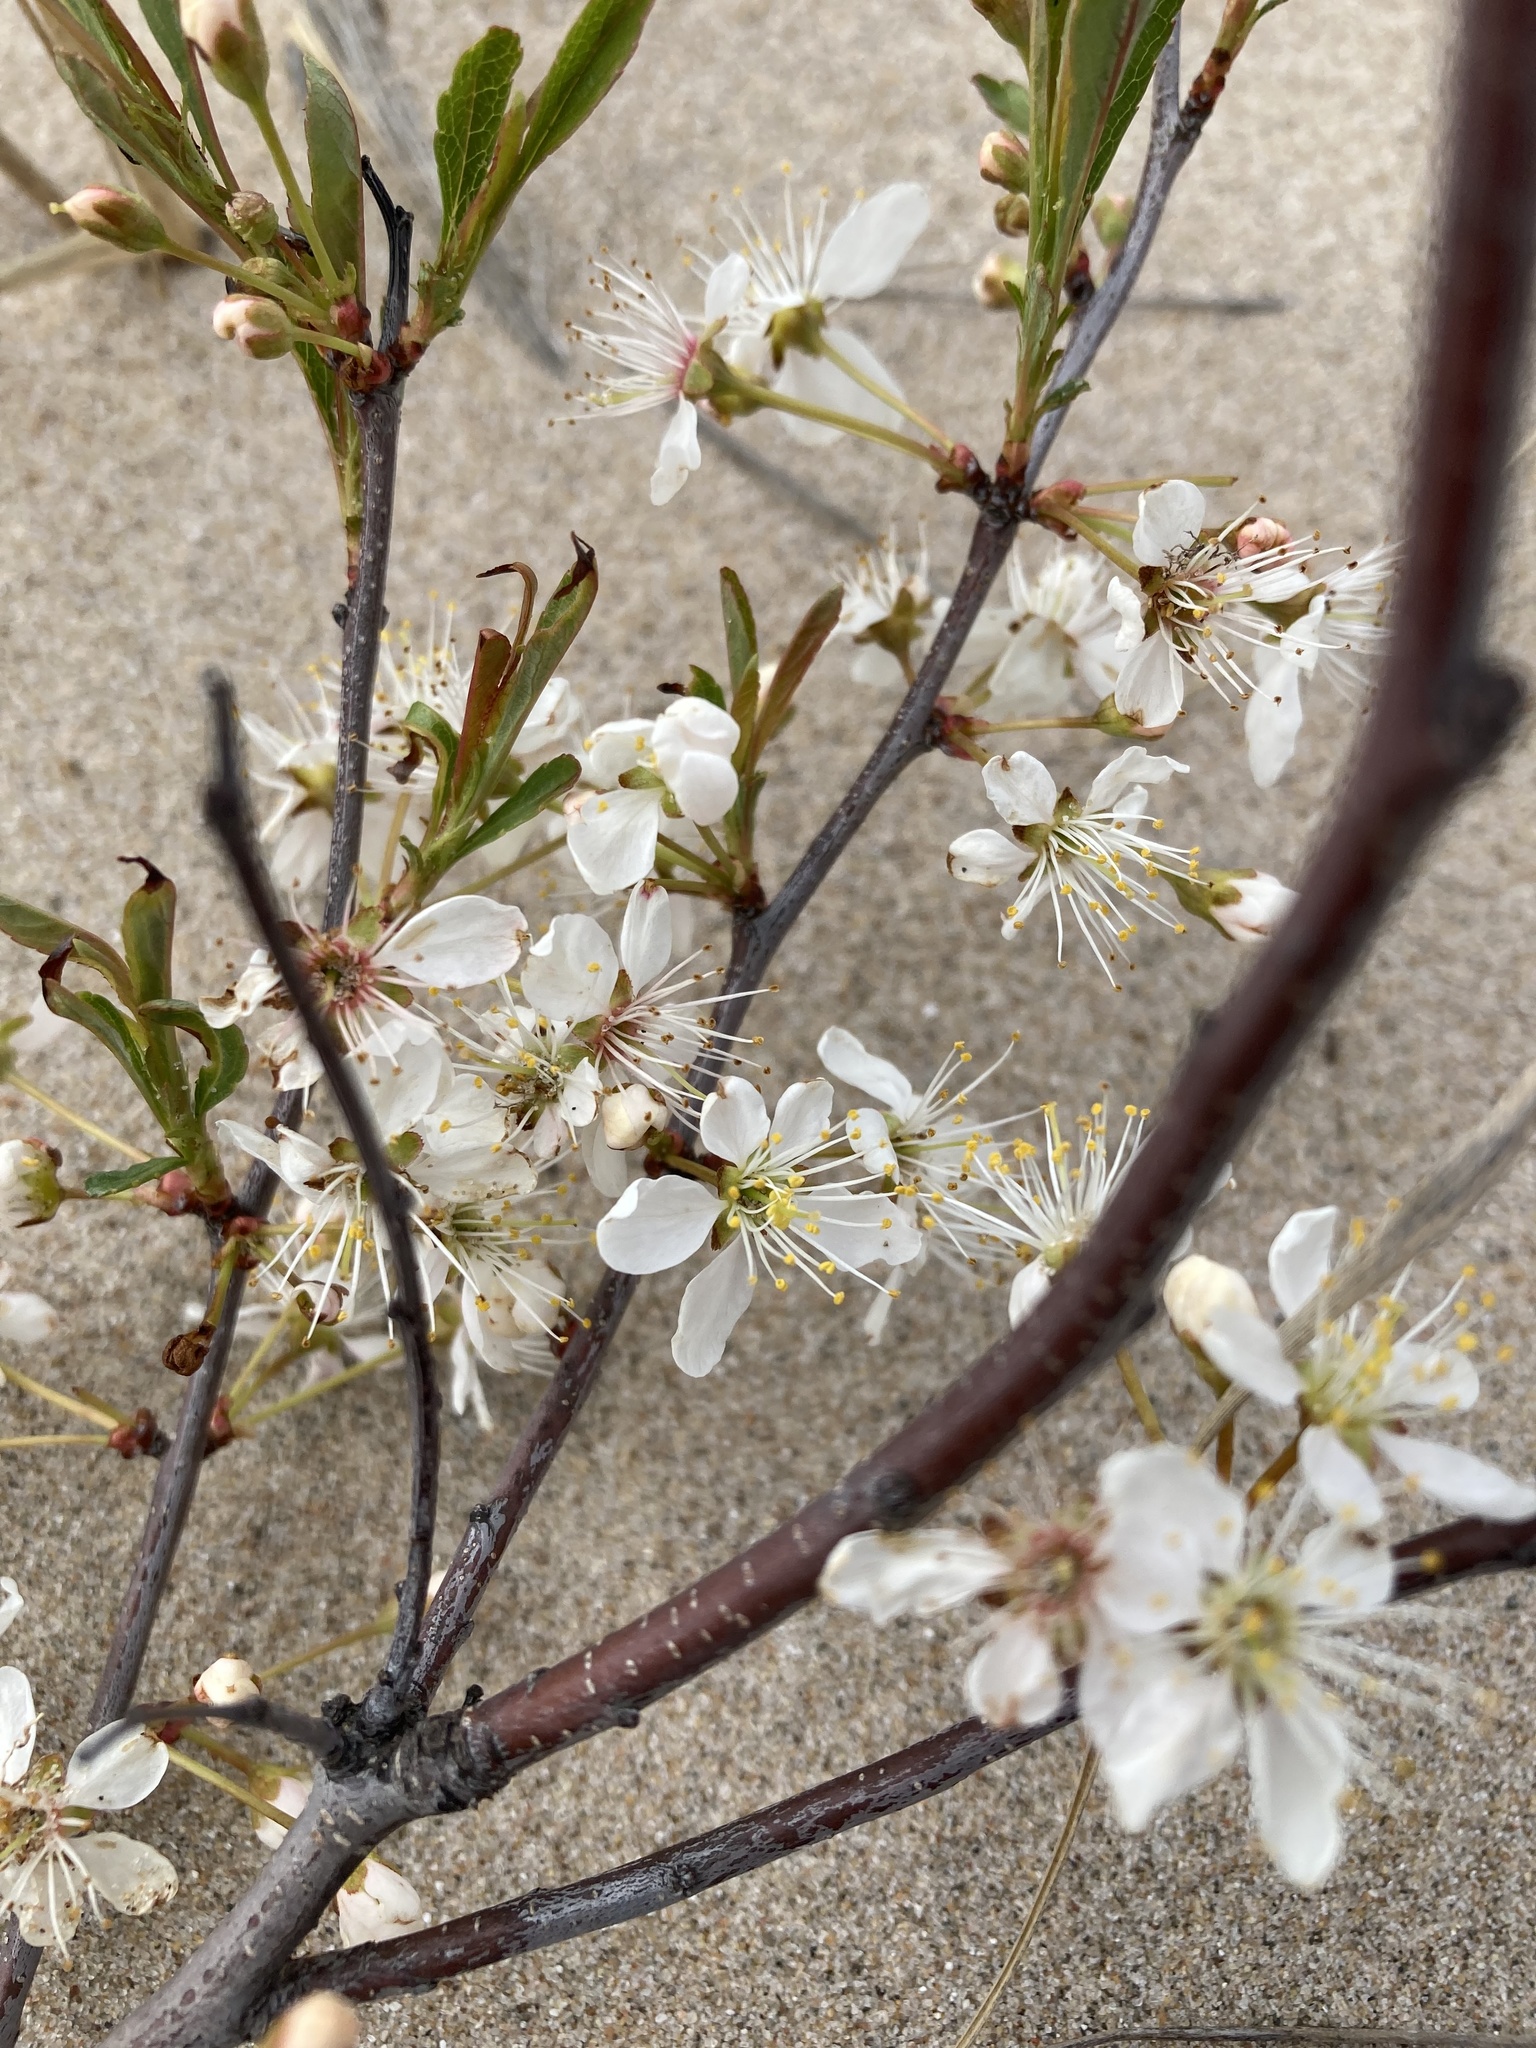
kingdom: Plantae
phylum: Tracheophyta
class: Magnoliopsida
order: Rosales
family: Rosaceae
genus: Prunus
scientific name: Prunus pumila
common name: Dwarf cherry
